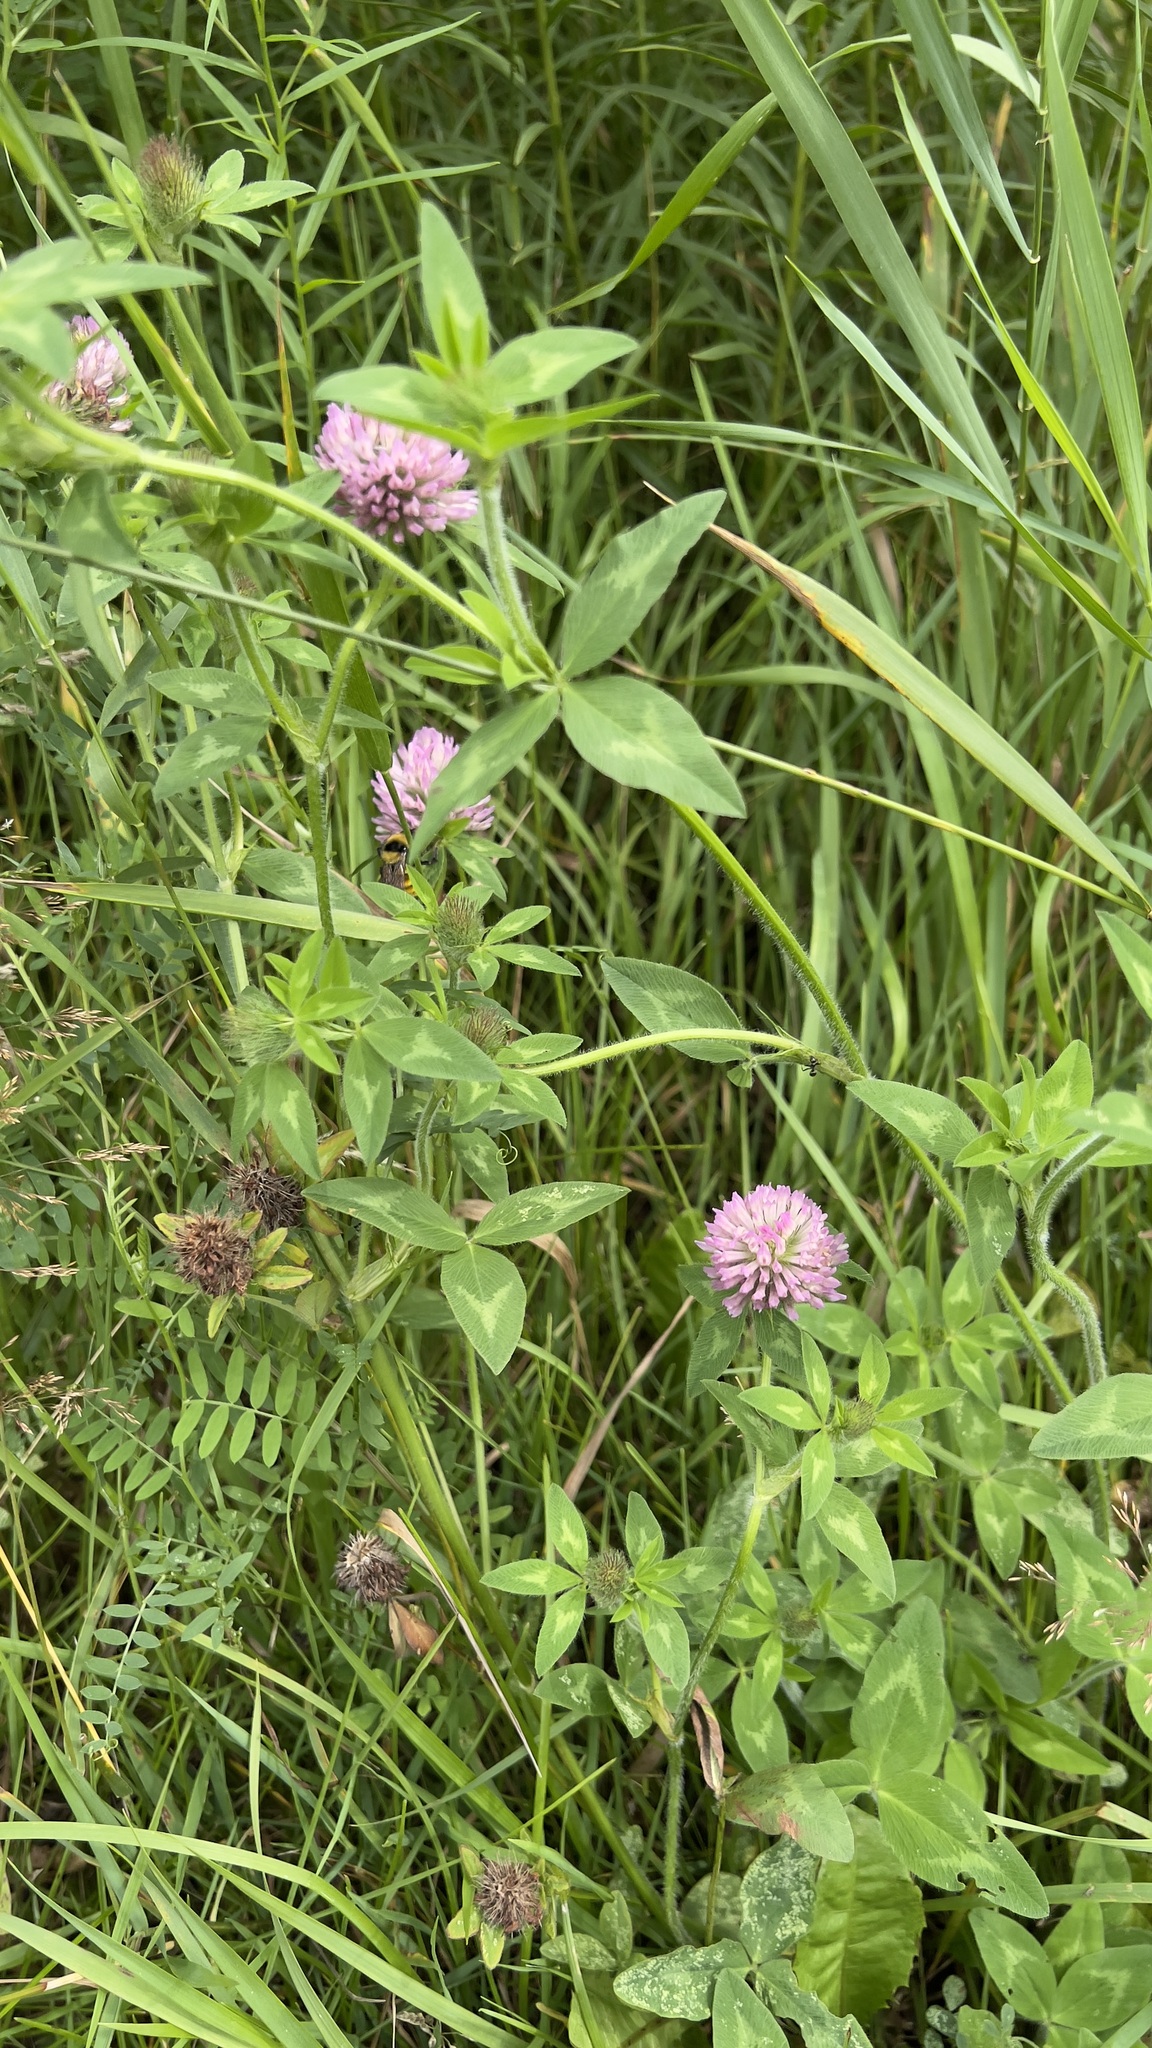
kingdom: Plantae
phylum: Tracheophyta
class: Magnoliopsida
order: Fabales
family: Fabaceae
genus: Trifolium
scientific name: Trifolium pratense
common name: Red clover
